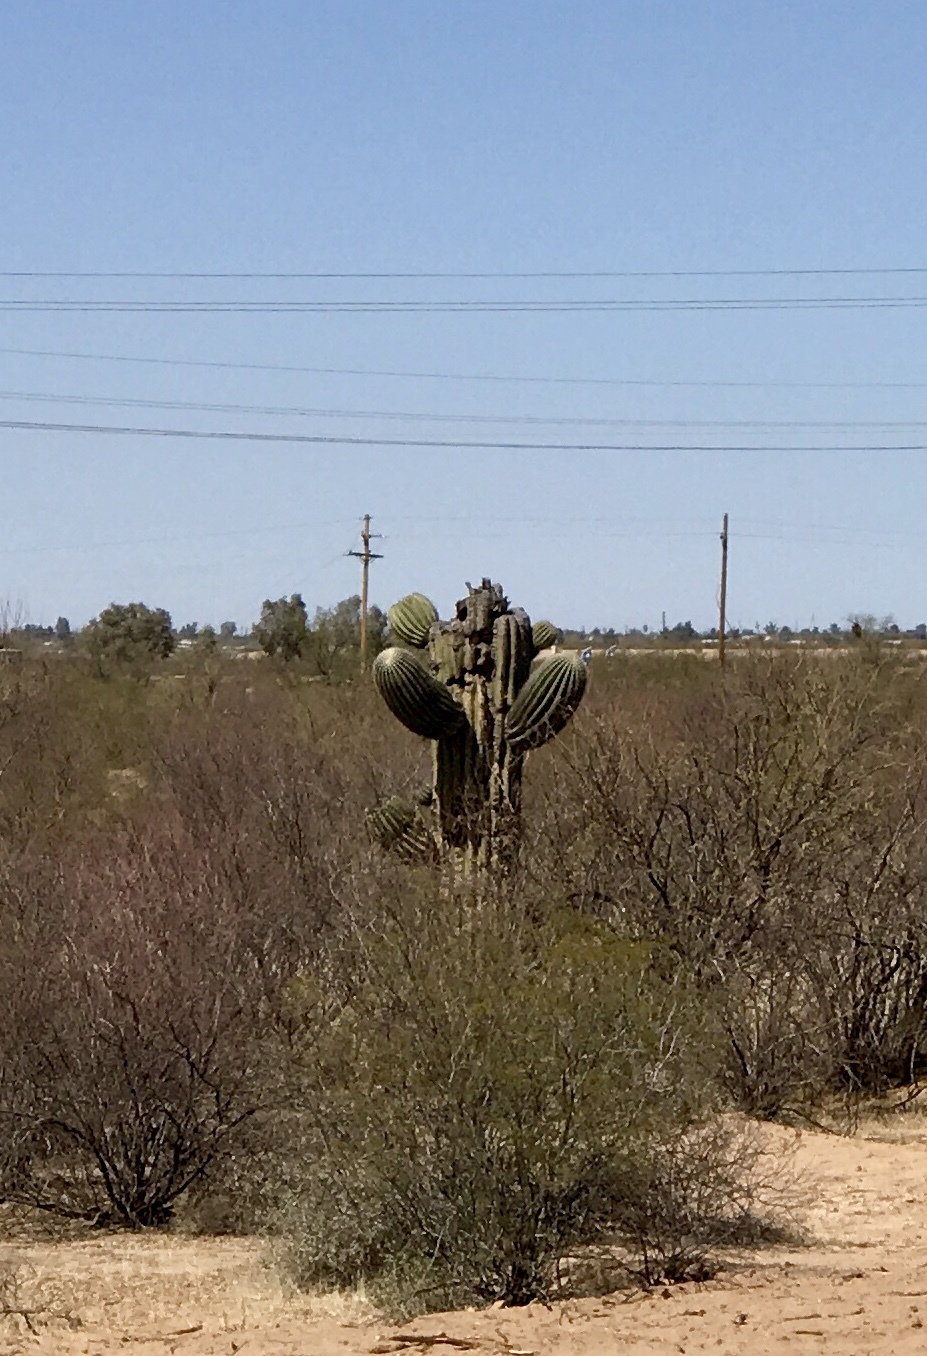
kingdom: Plantae
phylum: Tracheophyta
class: Magnoliopsida
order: Caryophyllales
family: Cactaceae
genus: Carnegiea
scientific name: Carnegiea gigantea
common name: Saguaro
